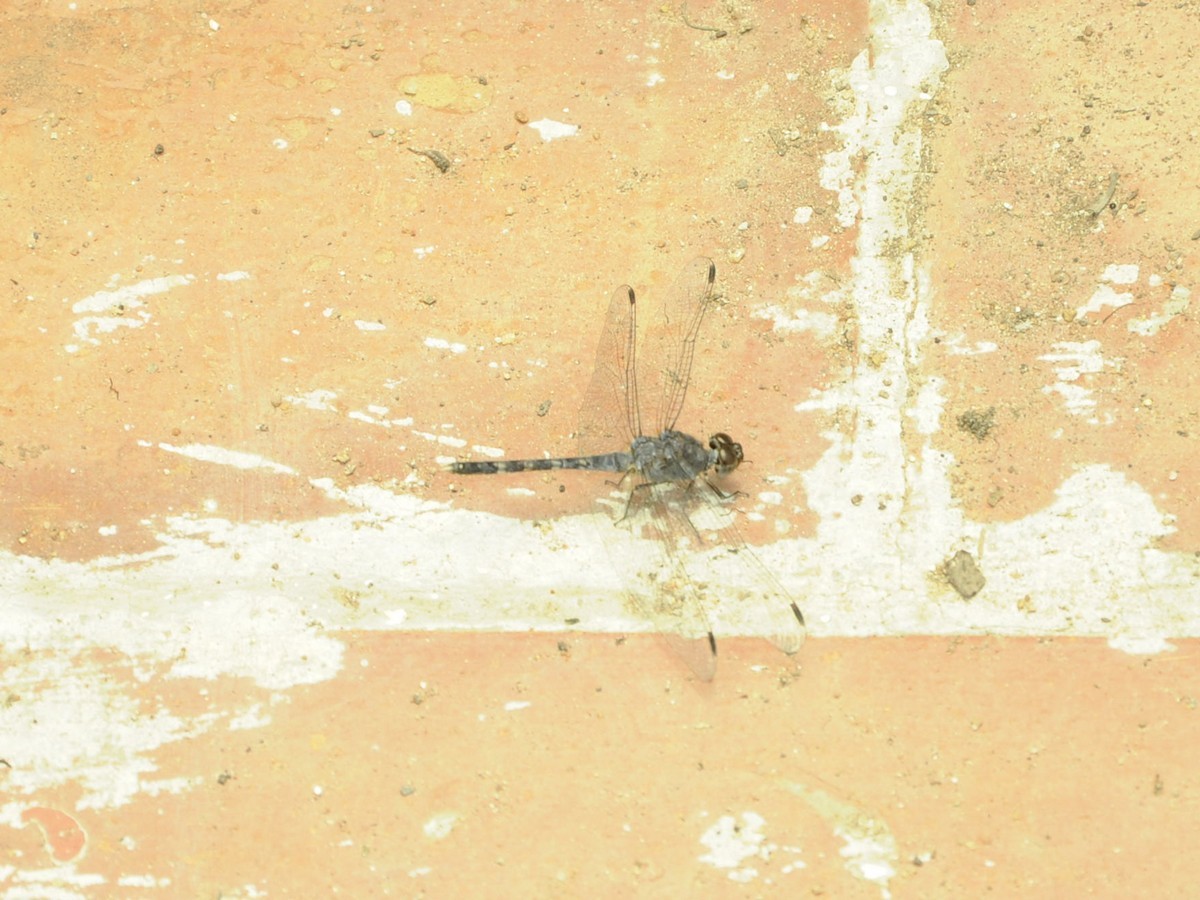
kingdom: Animalia
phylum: Arthropoda
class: Insecta
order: Odonata
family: Libellulidae
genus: Bradinopyga
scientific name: Bradinopyga geminata
